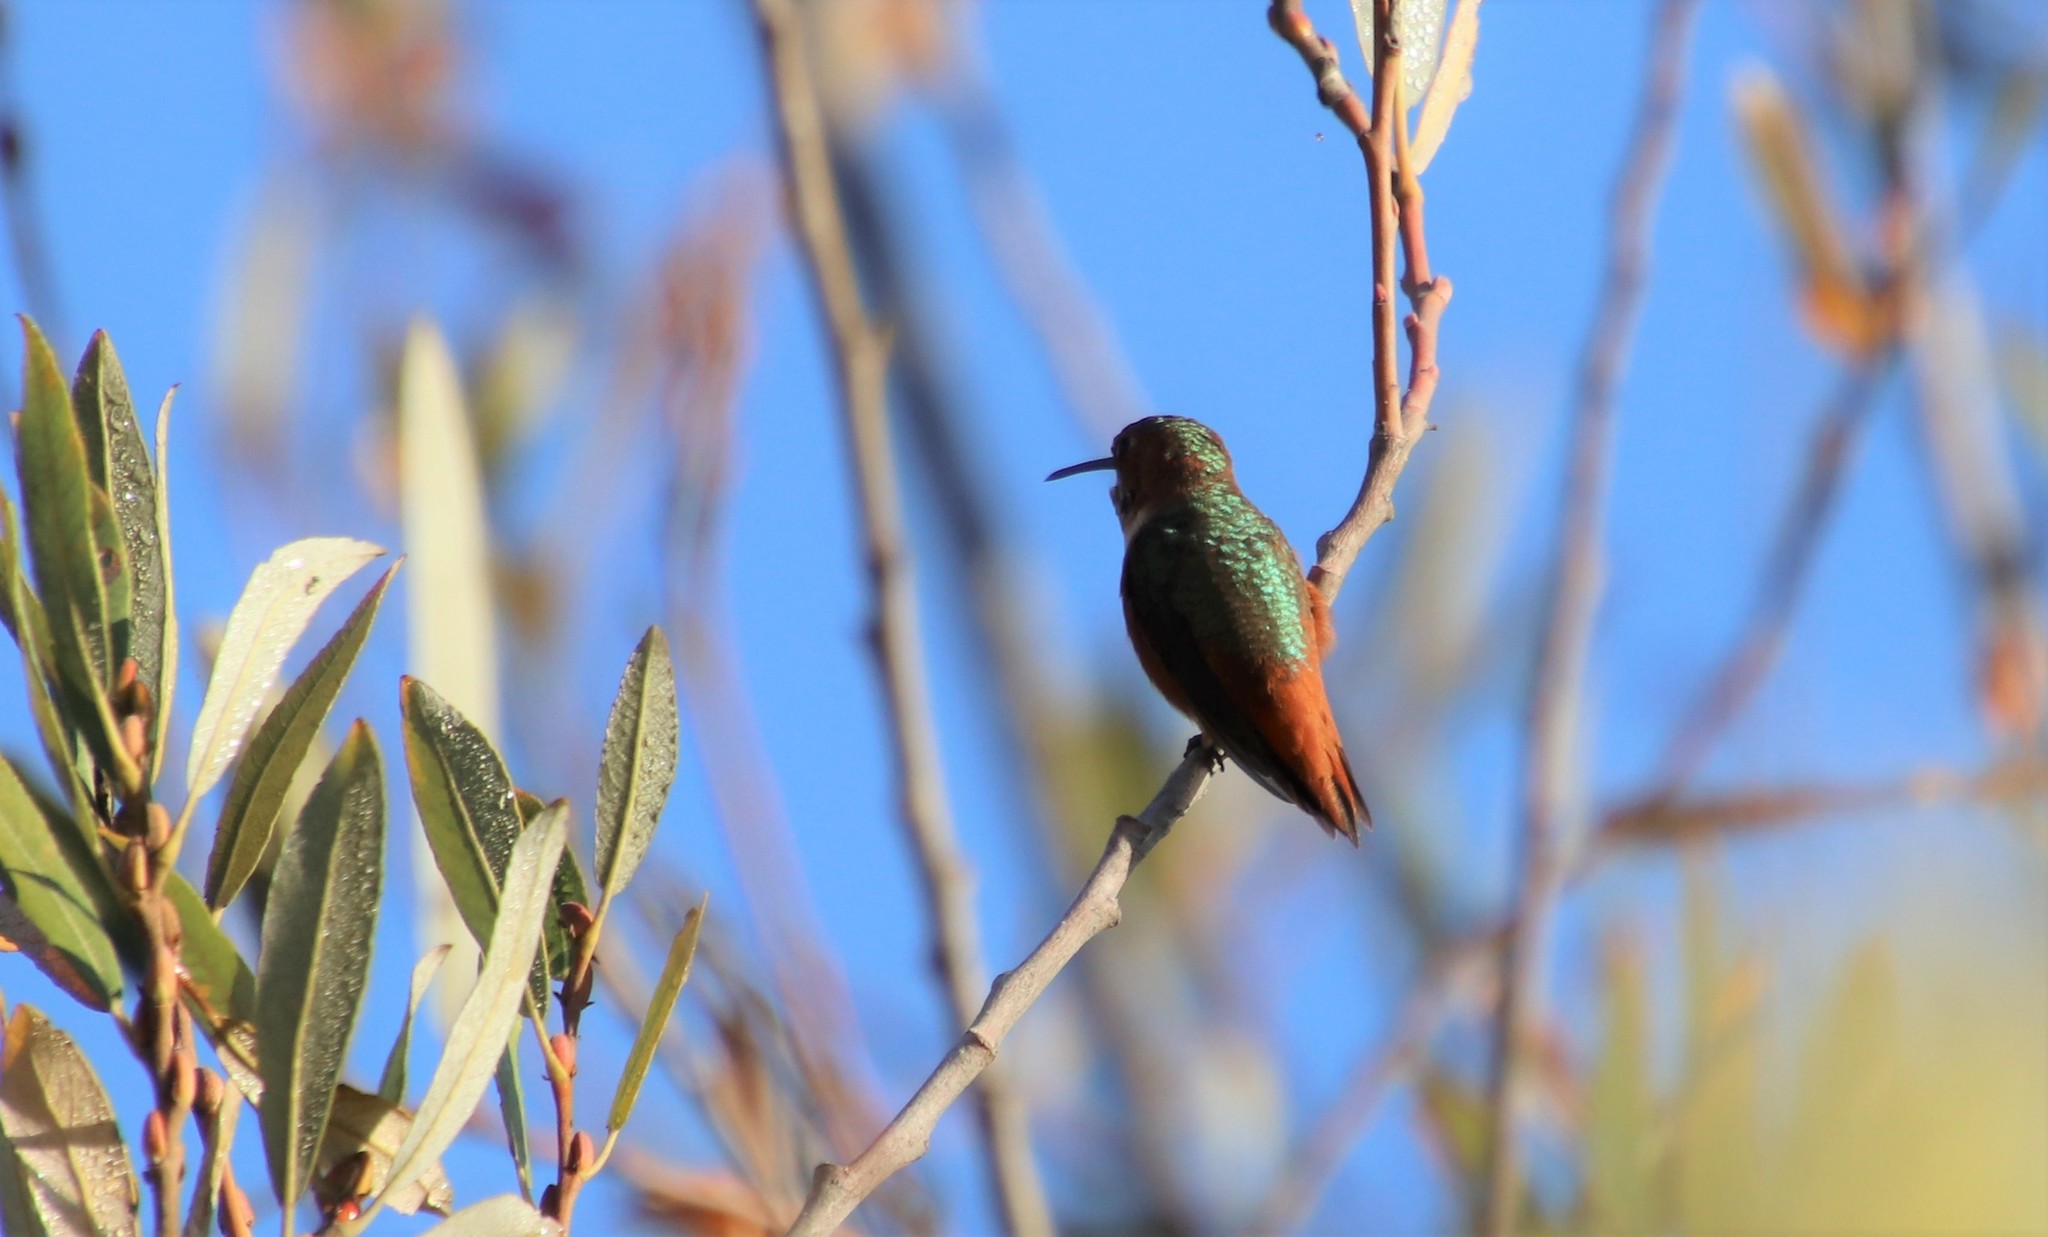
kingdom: Animalia
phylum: Chordata
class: Aves
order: Apodiformes
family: Trochilidae
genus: Selasphorus
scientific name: Selasphorus sasin
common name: Allen's hummingbird
